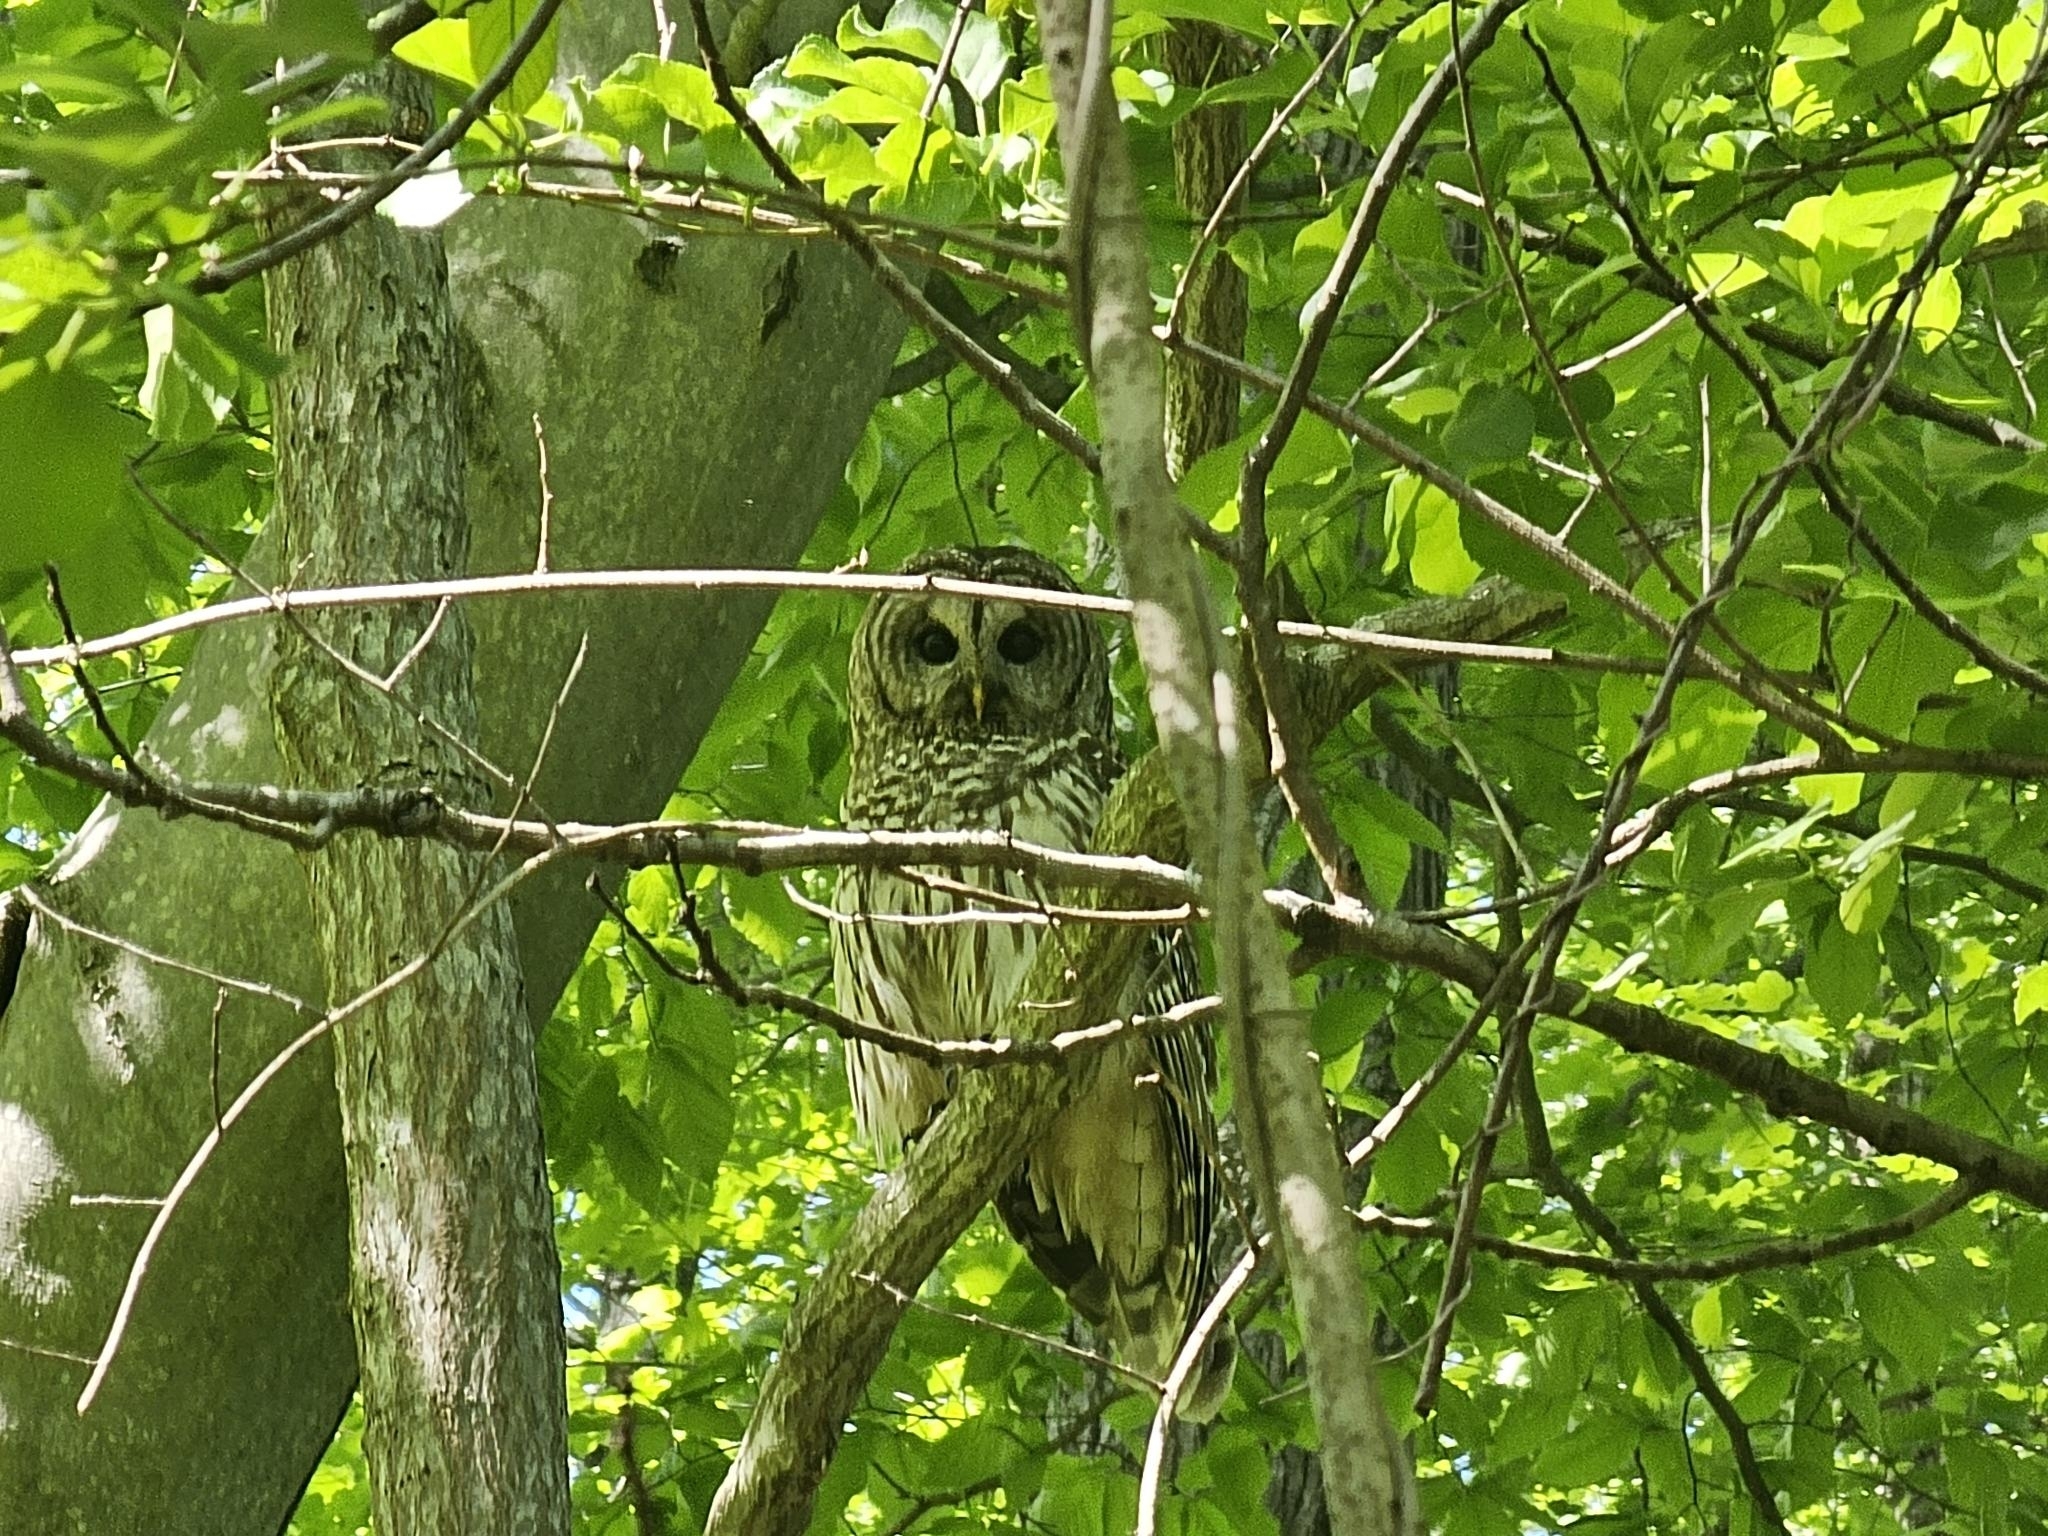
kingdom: Animalia
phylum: Chordata
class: Aves
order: Strigiformes
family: Strigidae
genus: Strix
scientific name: Strix varia
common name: Barred owl
